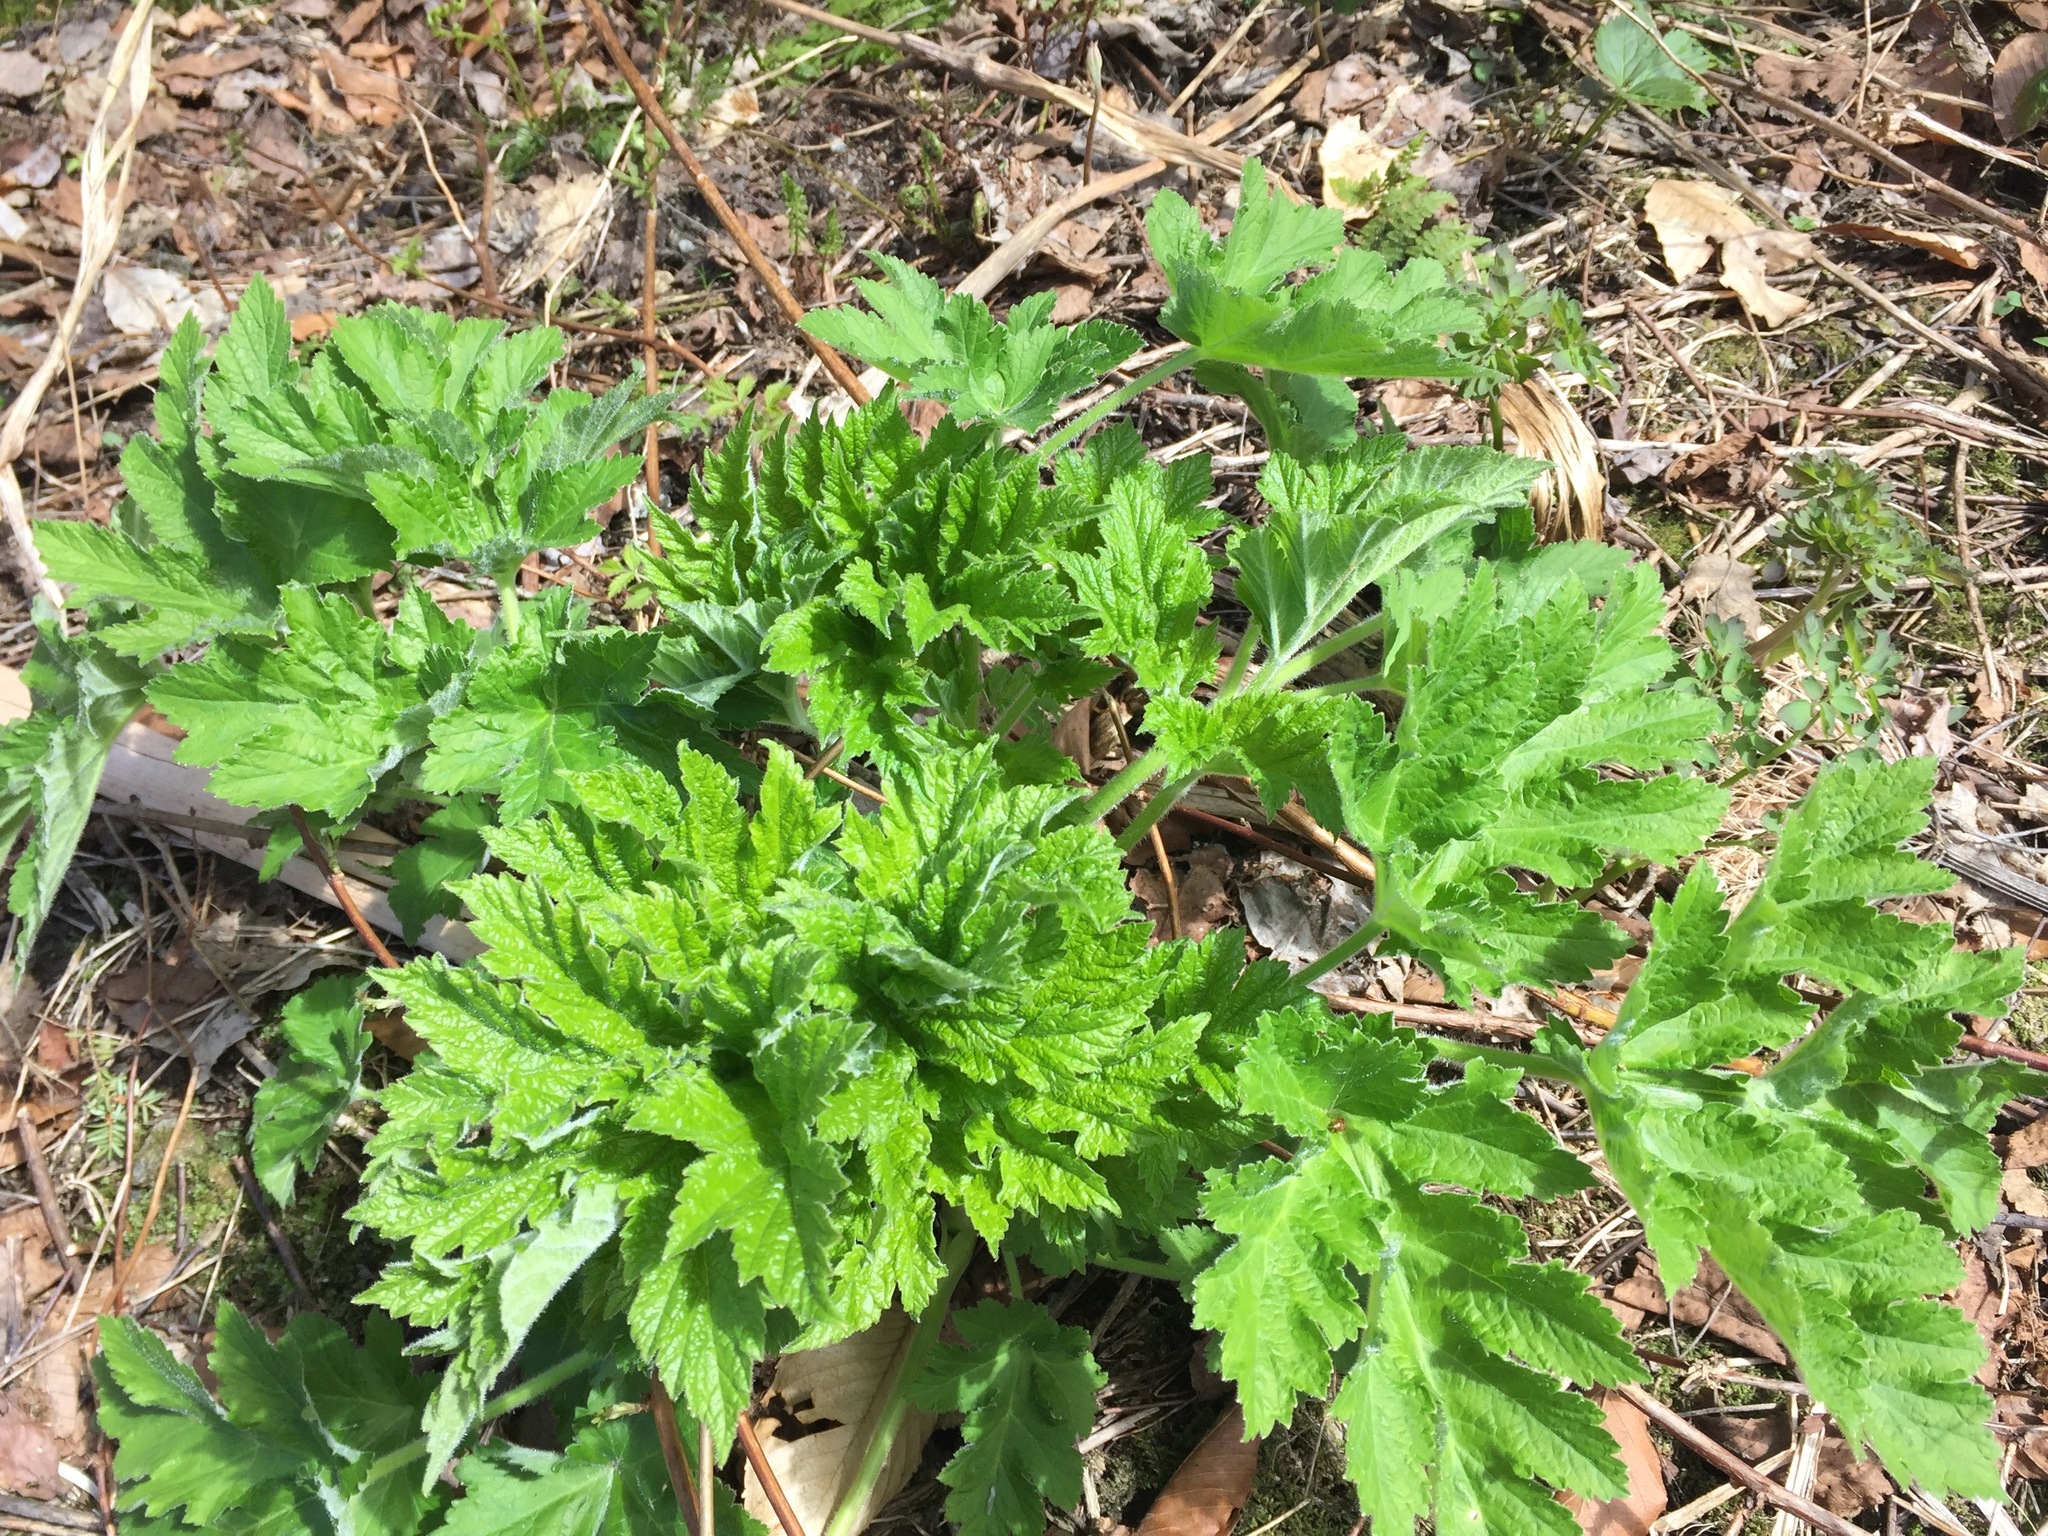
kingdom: Plantae
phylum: Tracheophyta
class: Magnoliopsida
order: Apiales
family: Apiaceae
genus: Heracleum
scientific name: Heracleum maximum
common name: American cow parsnip
